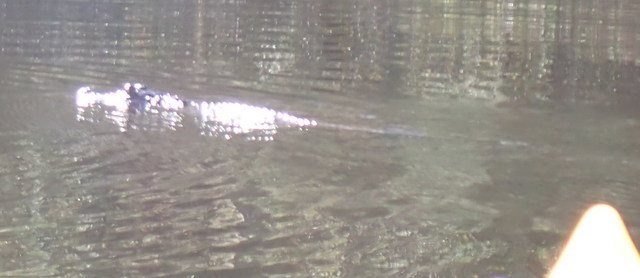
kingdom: Animalia
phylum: Chordata
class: Crocodylia
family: Alligatoridae
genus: Alligator
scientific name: Alligator mississippiensis
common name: American alligator
